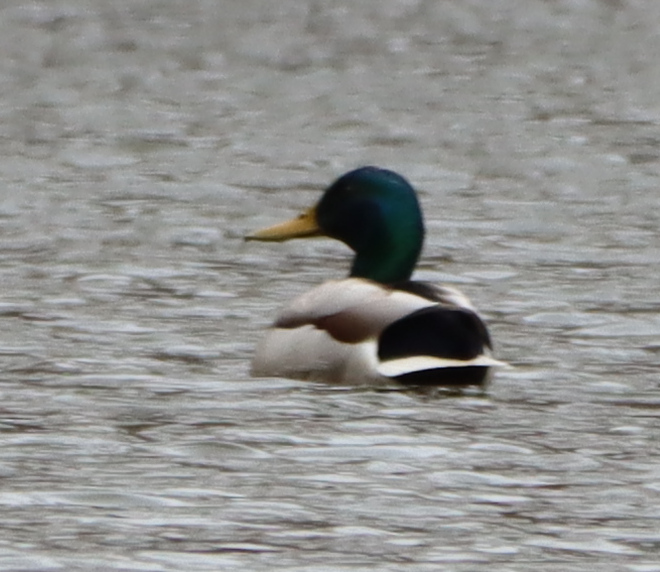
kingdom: Animalia
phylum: Chordata
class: Aves
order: Anseriformes
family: Anatidae
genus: Anas
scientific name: Anas platyrhynchos
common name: Mallard
